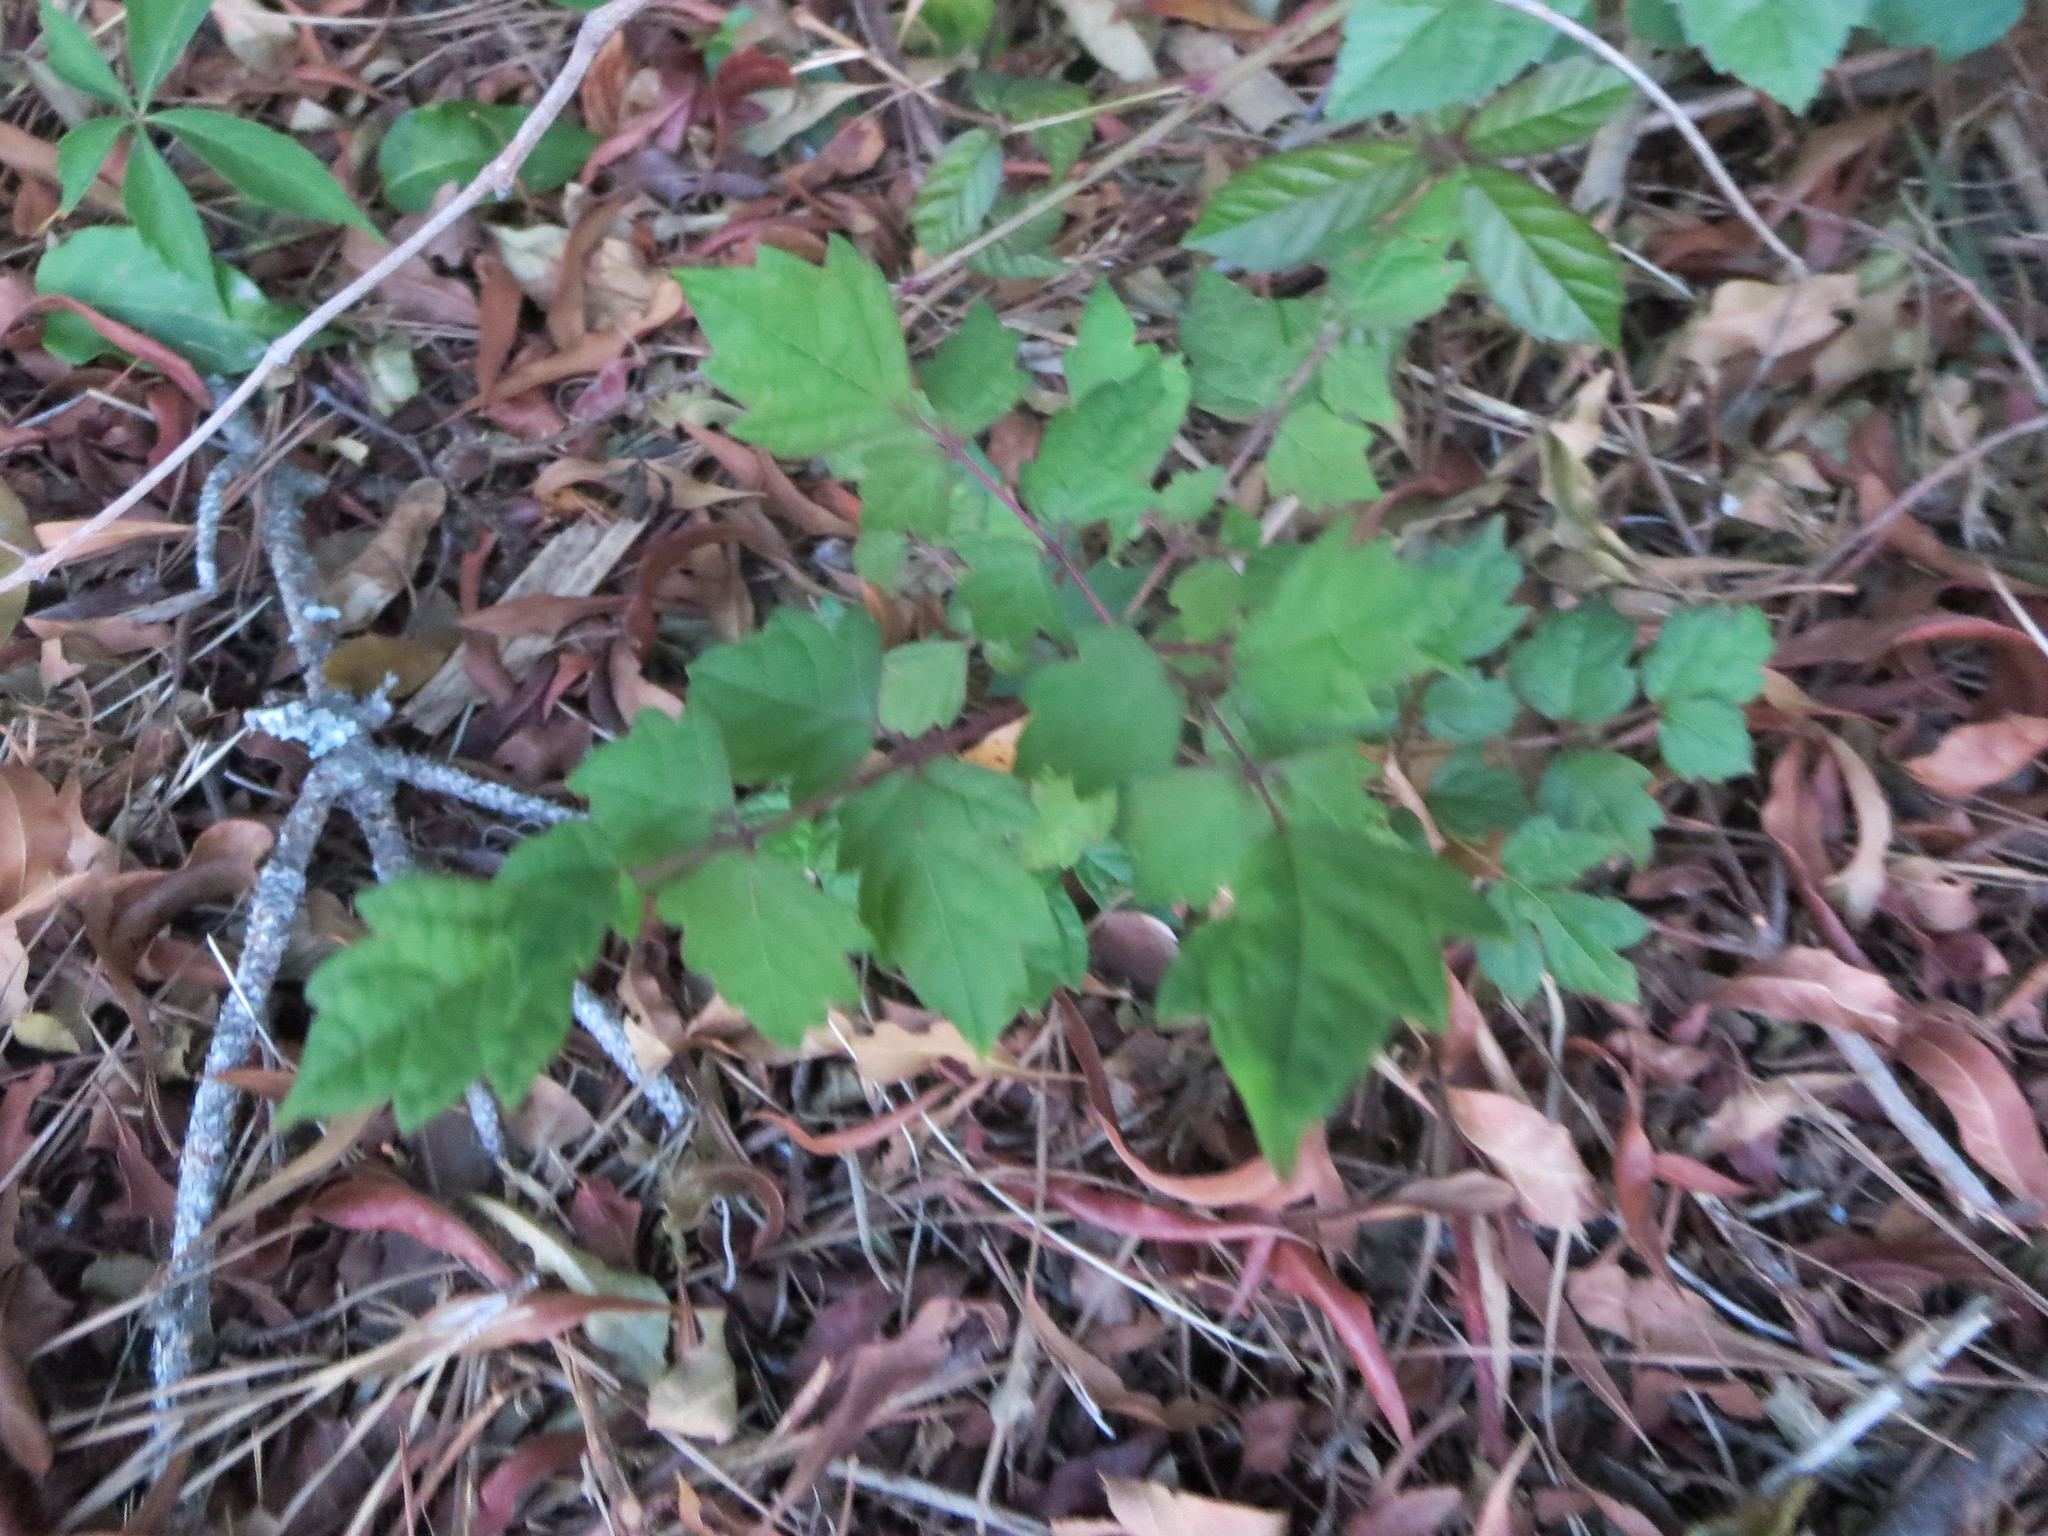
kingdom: Plantae
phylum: Tracheophyta
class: Magnoliopsida
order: Vitales
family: Vitaceae
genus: Nekemias
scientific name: Nekemias arborea
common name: Peppervine
